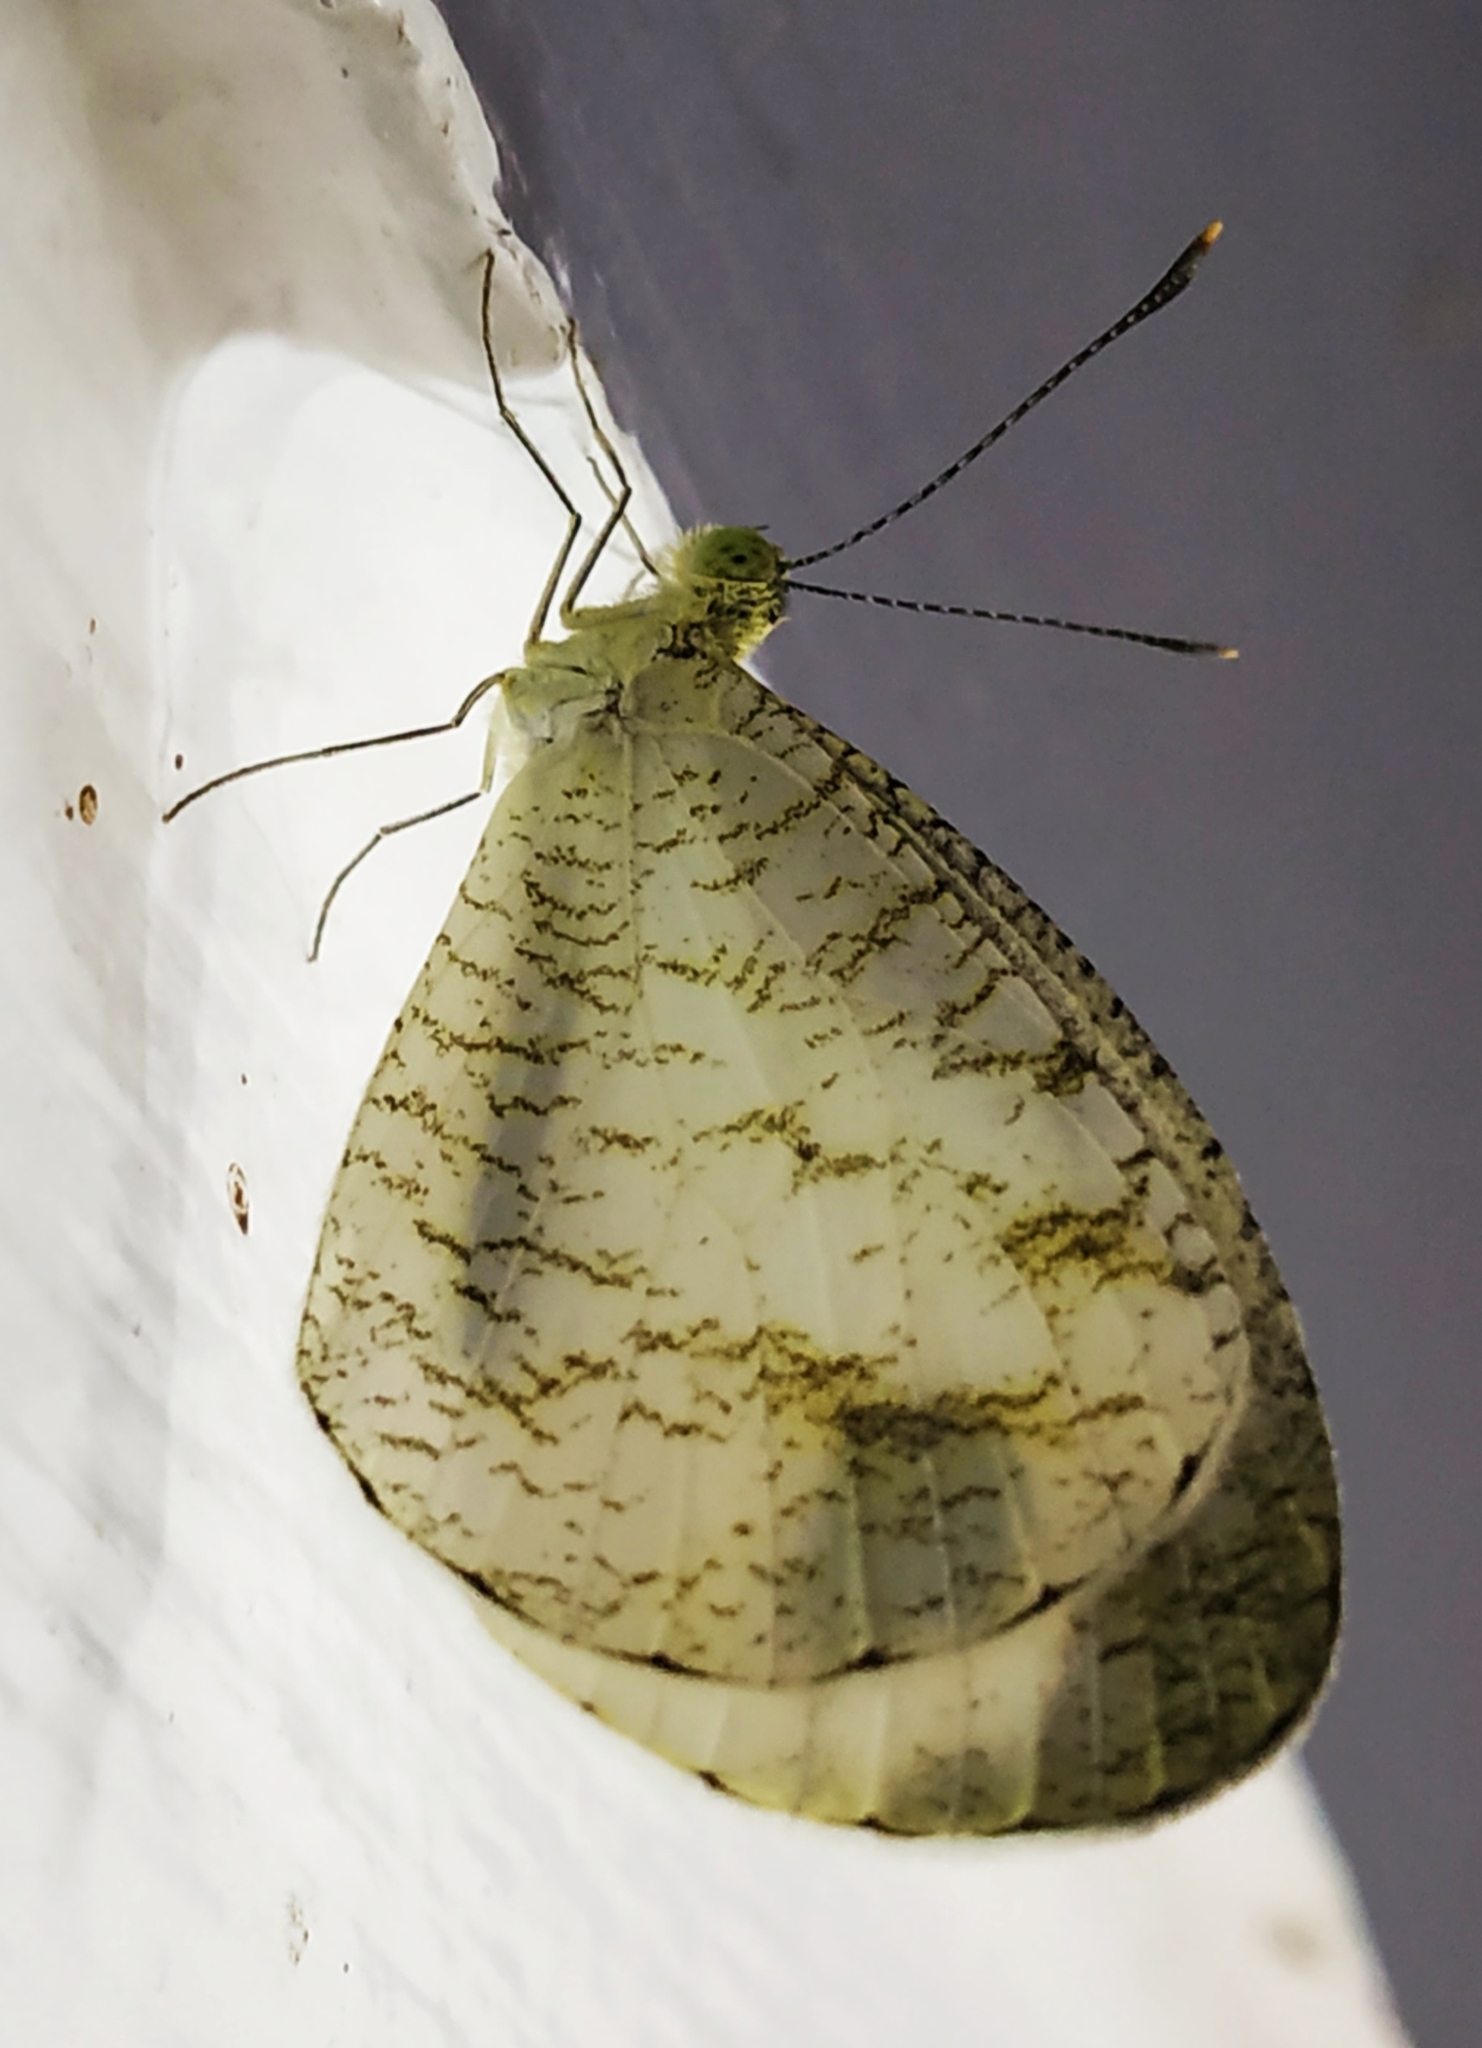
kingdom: Animalia
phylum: Arthropoda
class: Insecta
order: Lepidoptera
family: Pieridae
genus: Leptosia
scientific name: Leptosia nina
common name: Psyche
